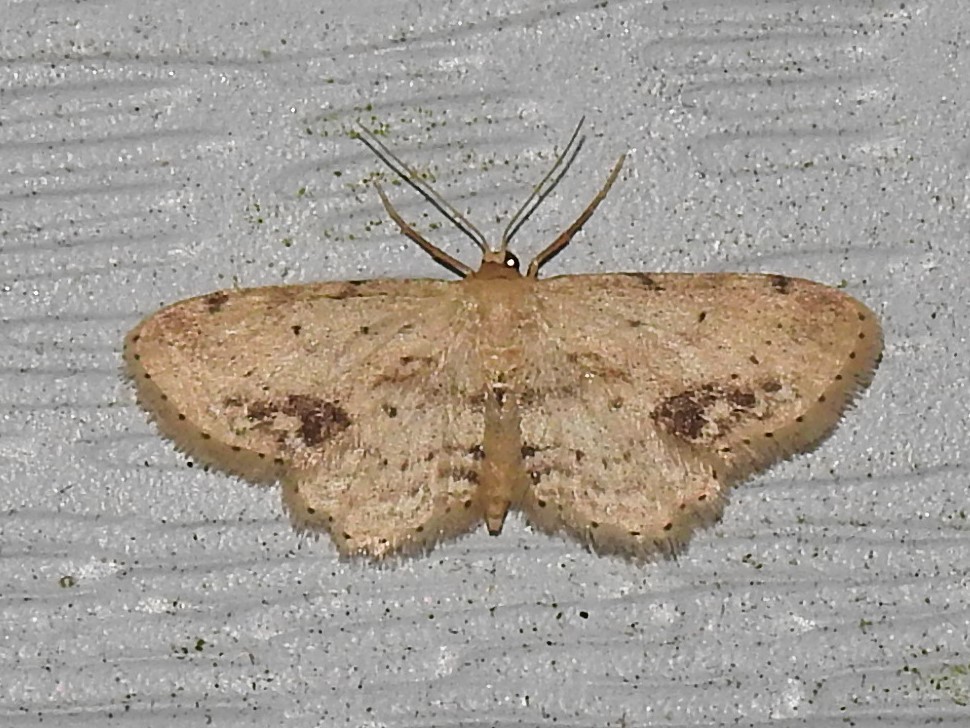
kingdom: Animalia
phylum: Arthropoda
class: Insecta
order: Lepidoptera
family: Geometridae
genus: Idaea
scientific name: Idaea dimidiata
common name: Single-dotted wave
